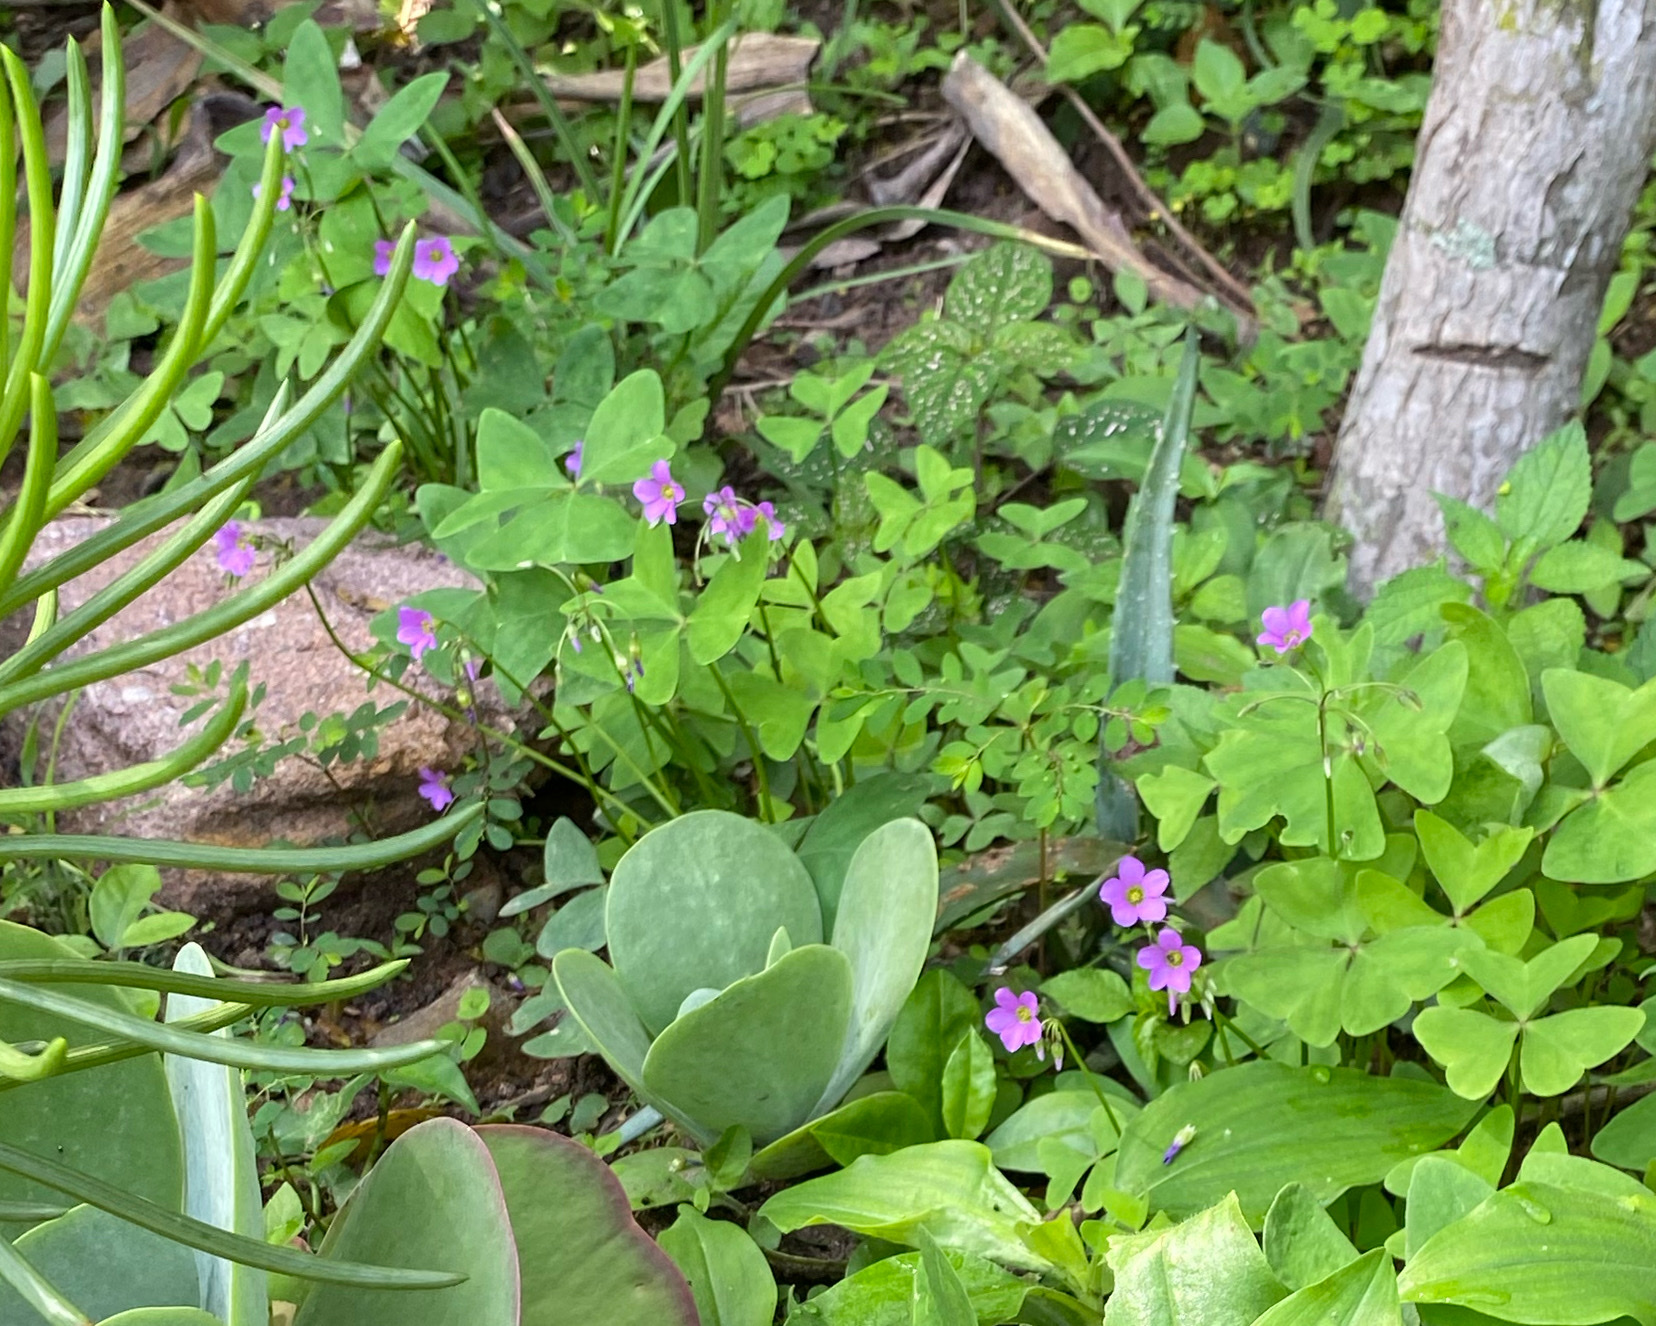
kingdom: Plantae
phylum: Tracheophyta
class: Magnoliopsida
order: Oxalidales
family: Oxalidaceae
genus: Oxalis
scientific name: Oxalis latifolia
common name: Garden pink-sorrel
